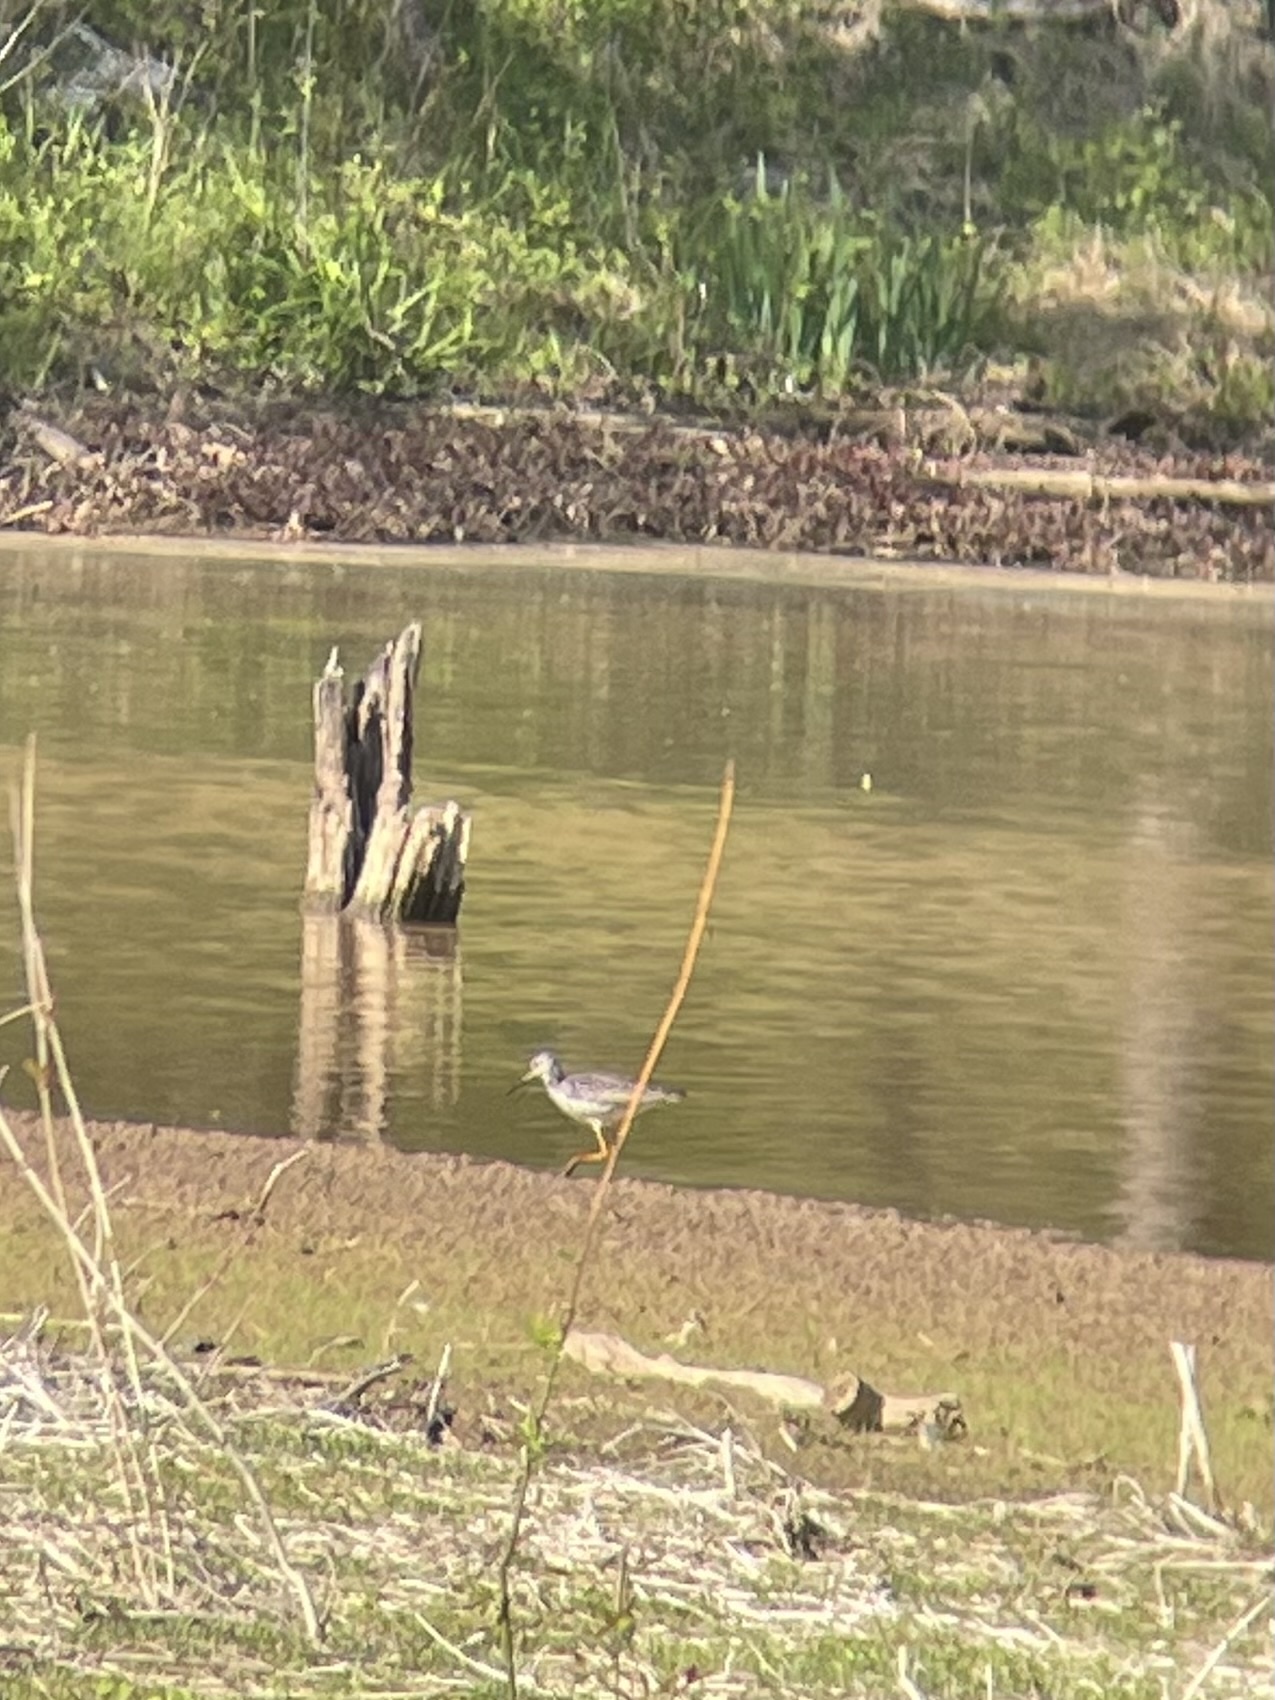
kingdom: Animalia
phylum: Chordata
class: Aves
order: Charadriiformes
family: Scolopacidae
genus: Tringa
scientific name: Tringa melanoleuca
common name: Greater yellowlegs
